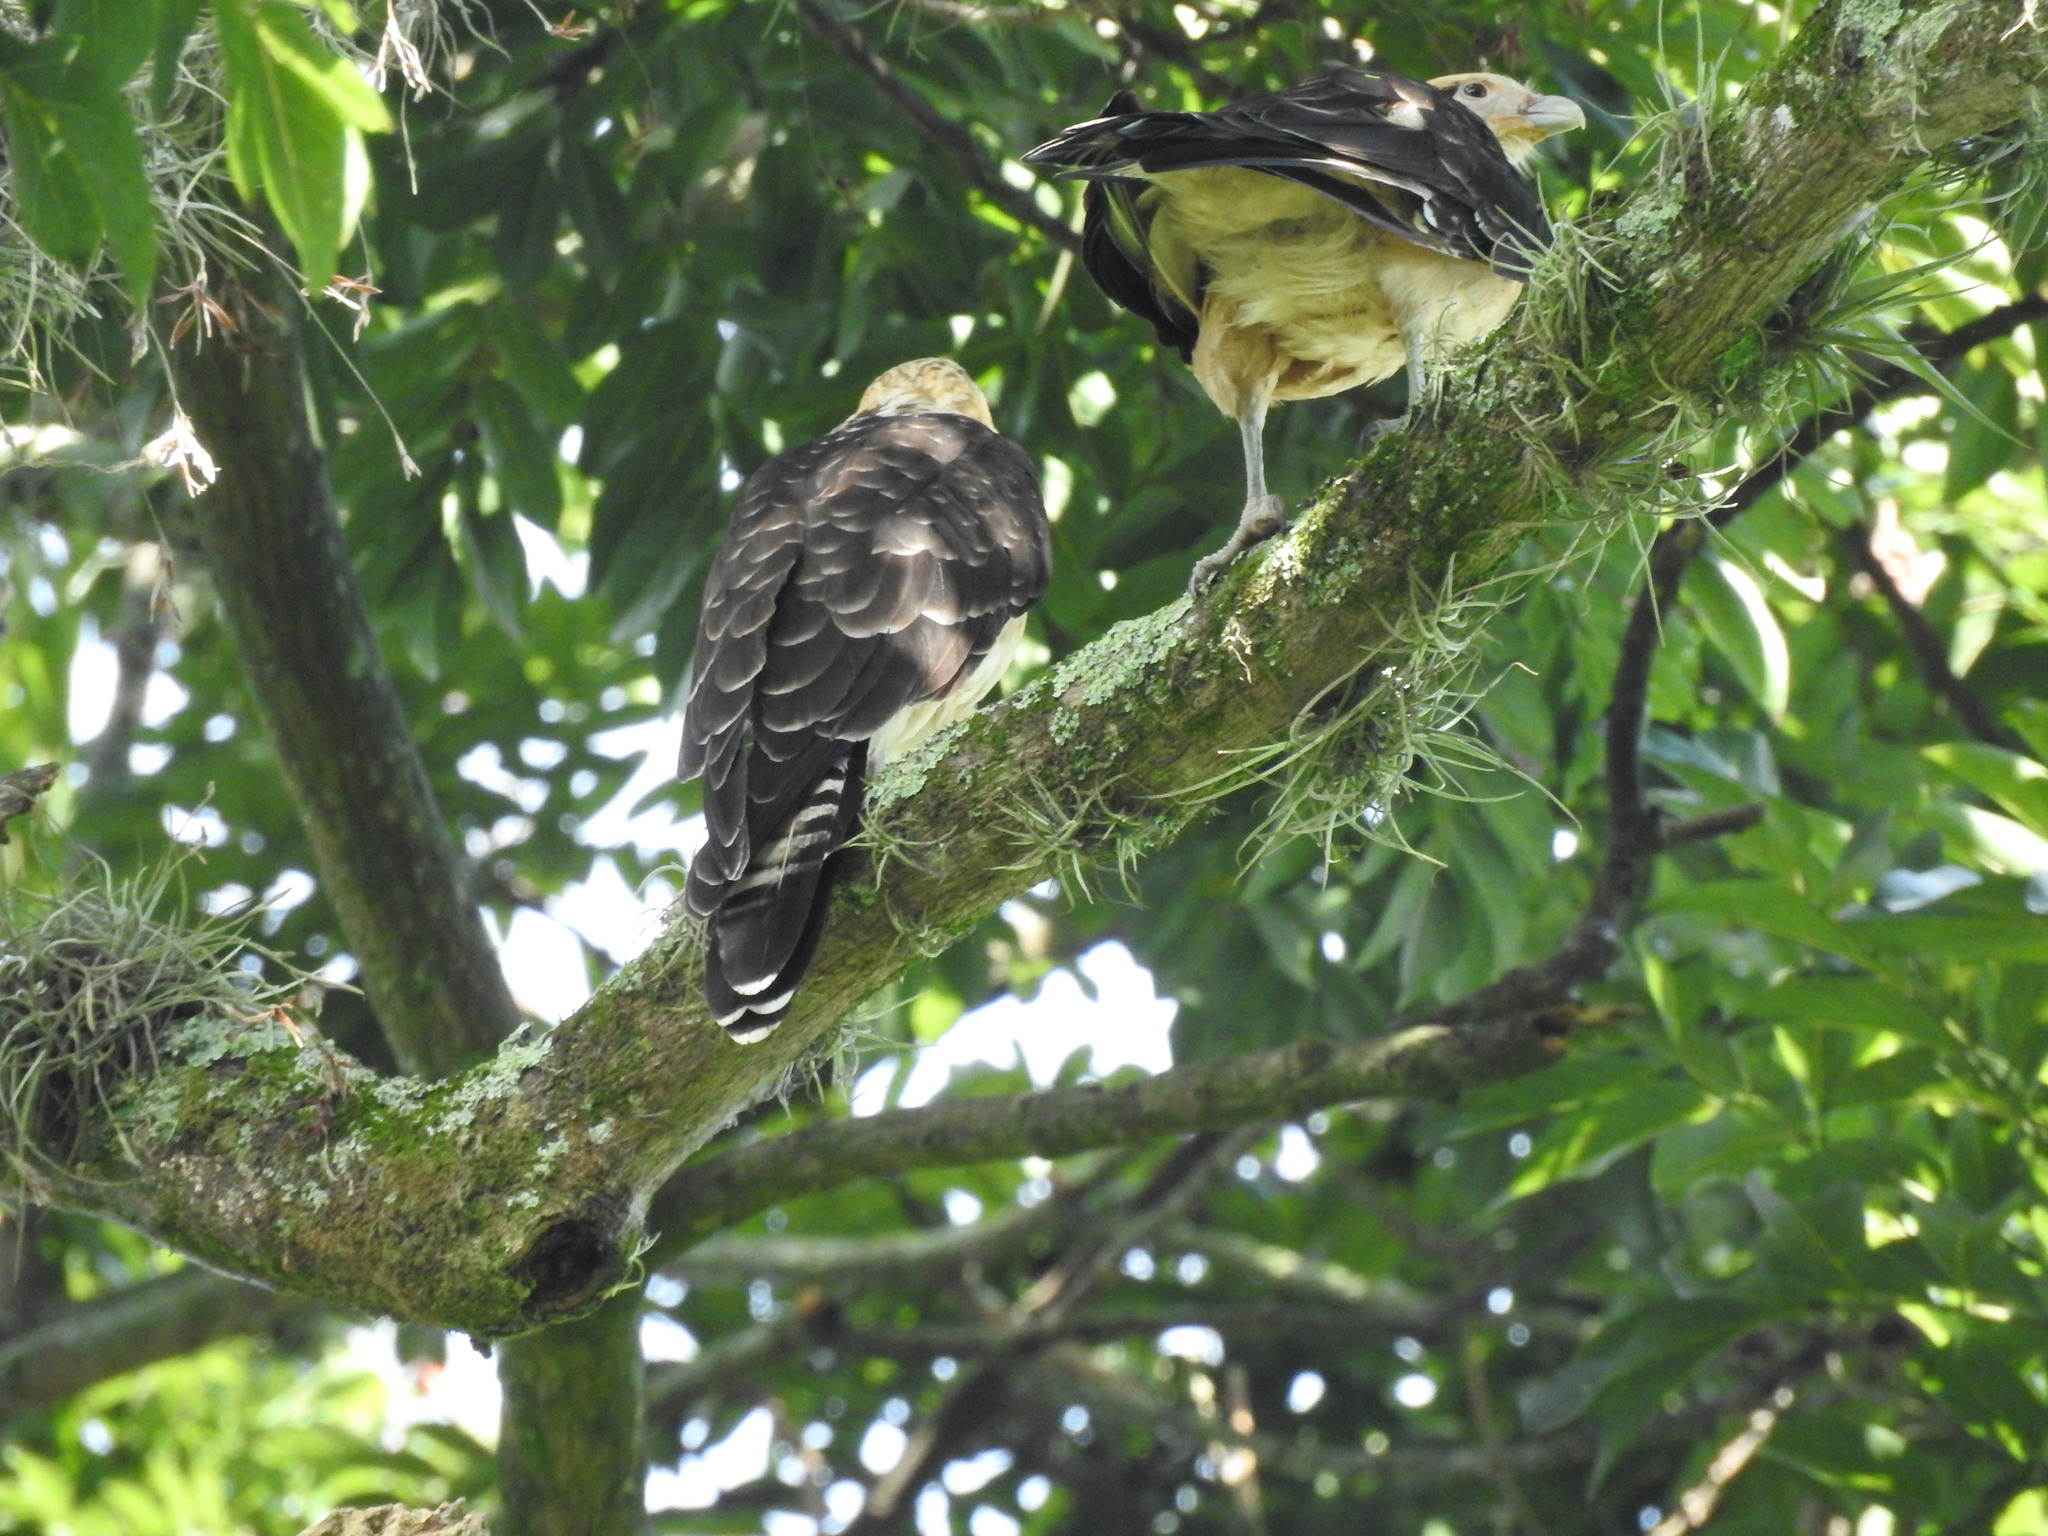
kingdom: Animalia
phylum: Chordata
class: Aves
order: Falconiformes
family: Falconidae
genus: Daptrius
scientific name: Daptrius
